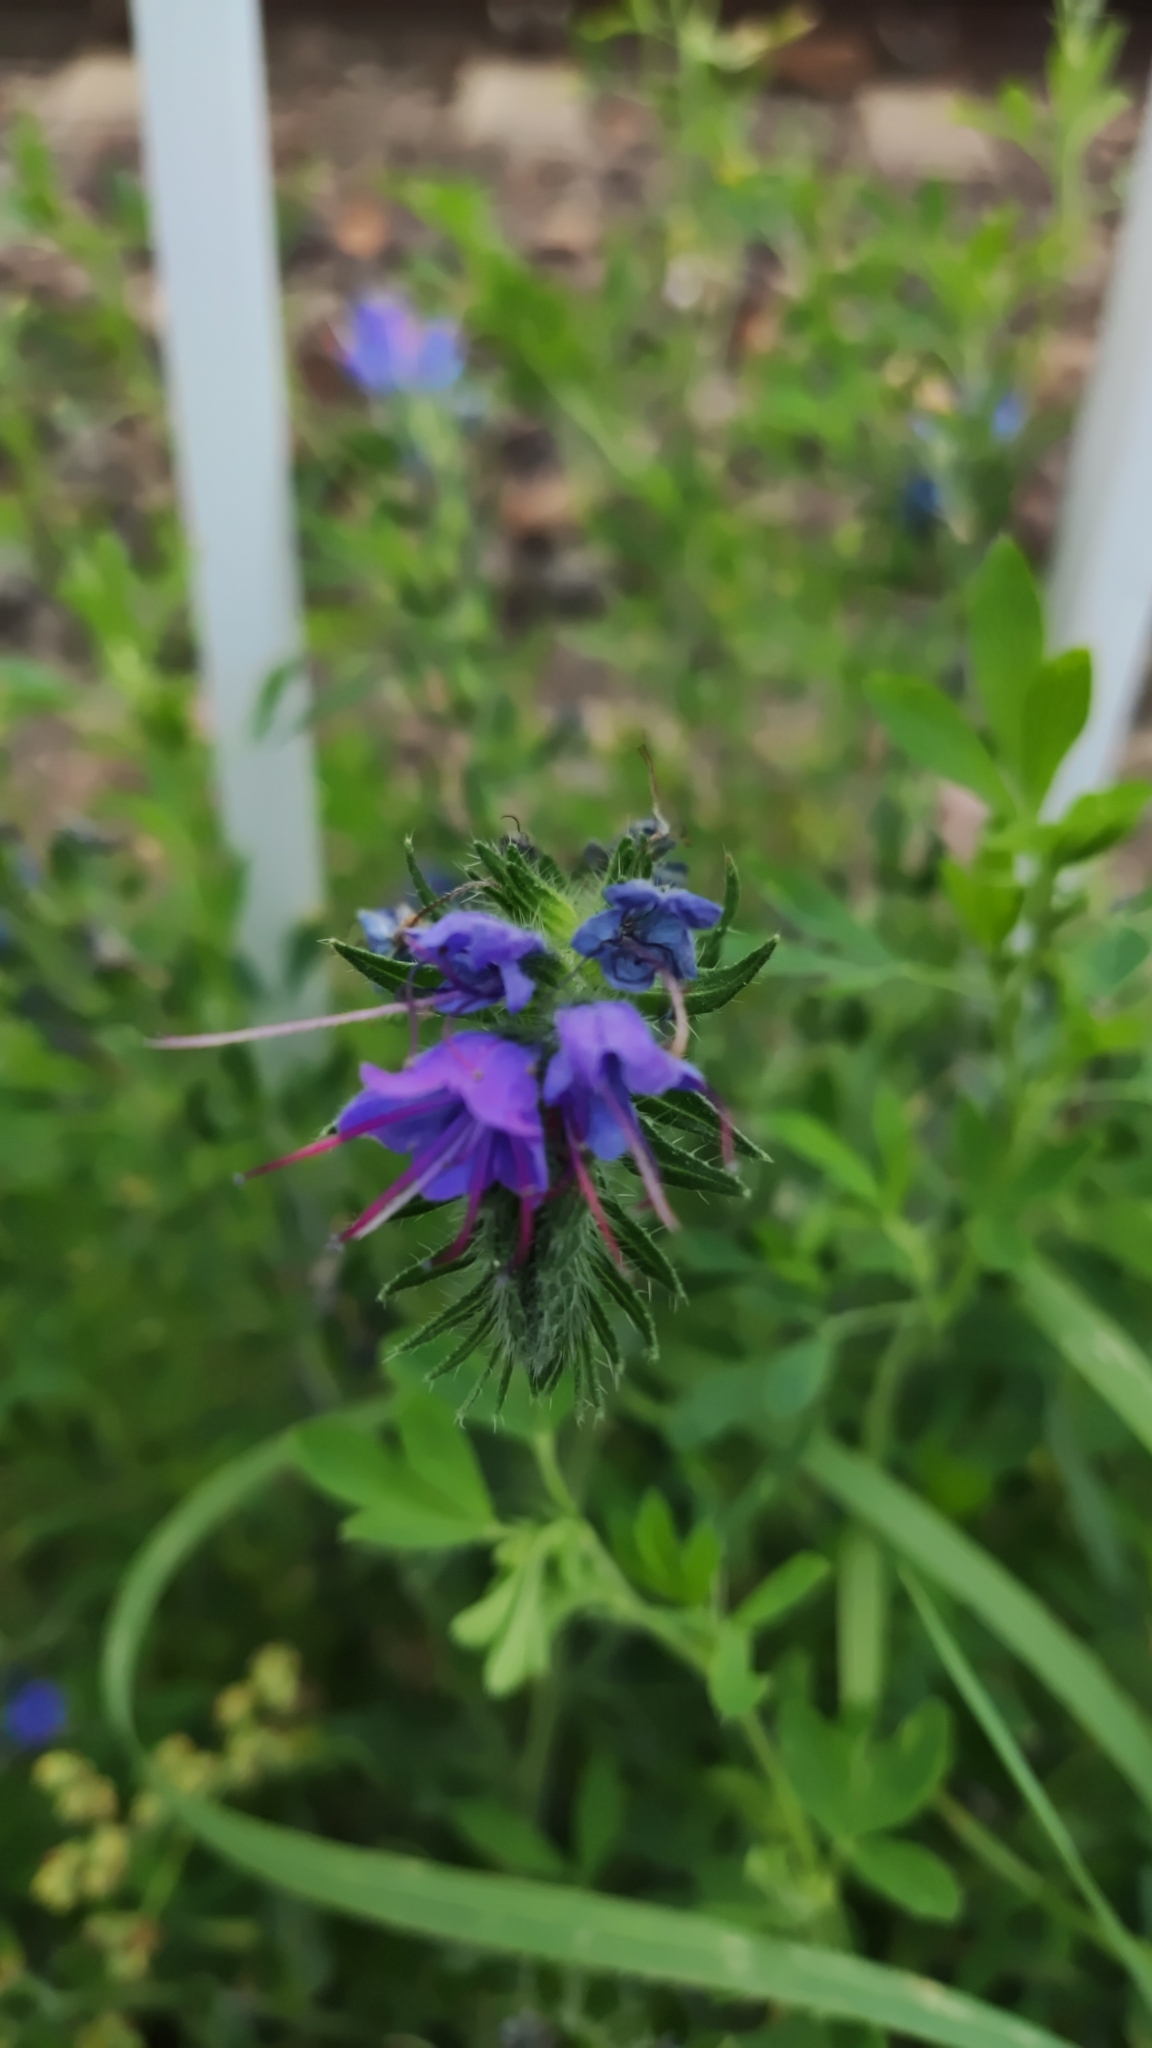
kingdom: Plantae
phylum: Tracheophyta
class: Magnoliopsida
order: Boraginales
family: Boraginaceae
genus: Echium
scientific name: Echium vulgare
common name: Common viper's bugloss
